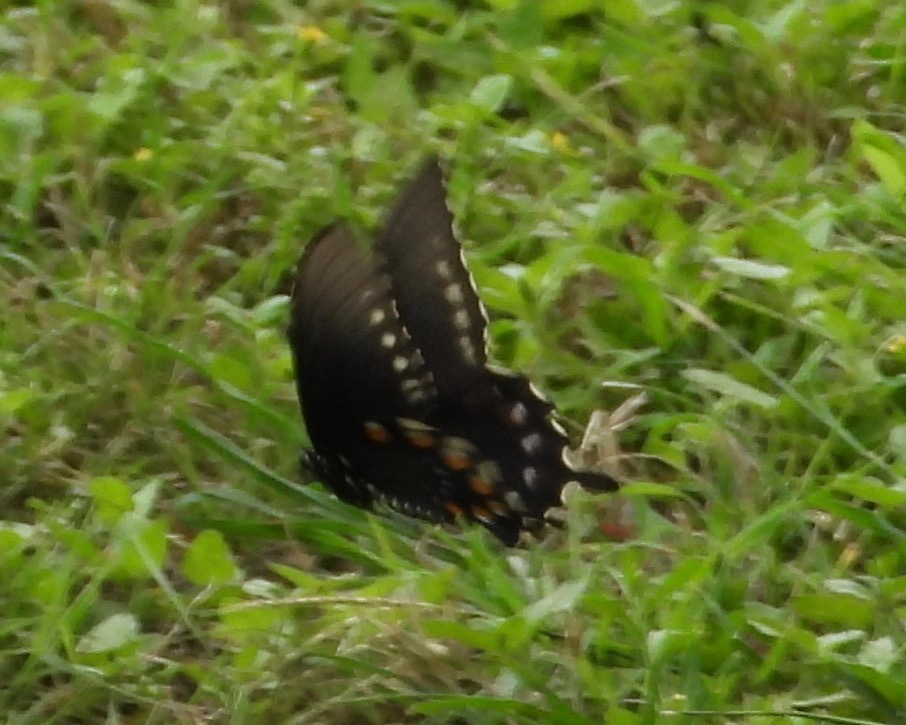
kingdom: Animalia
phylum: Arthropoda
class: Insecta
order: Lepidoptera
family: Papilionidae
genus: Battus
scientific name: Battus philenor
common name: Pipevine swallowtail
